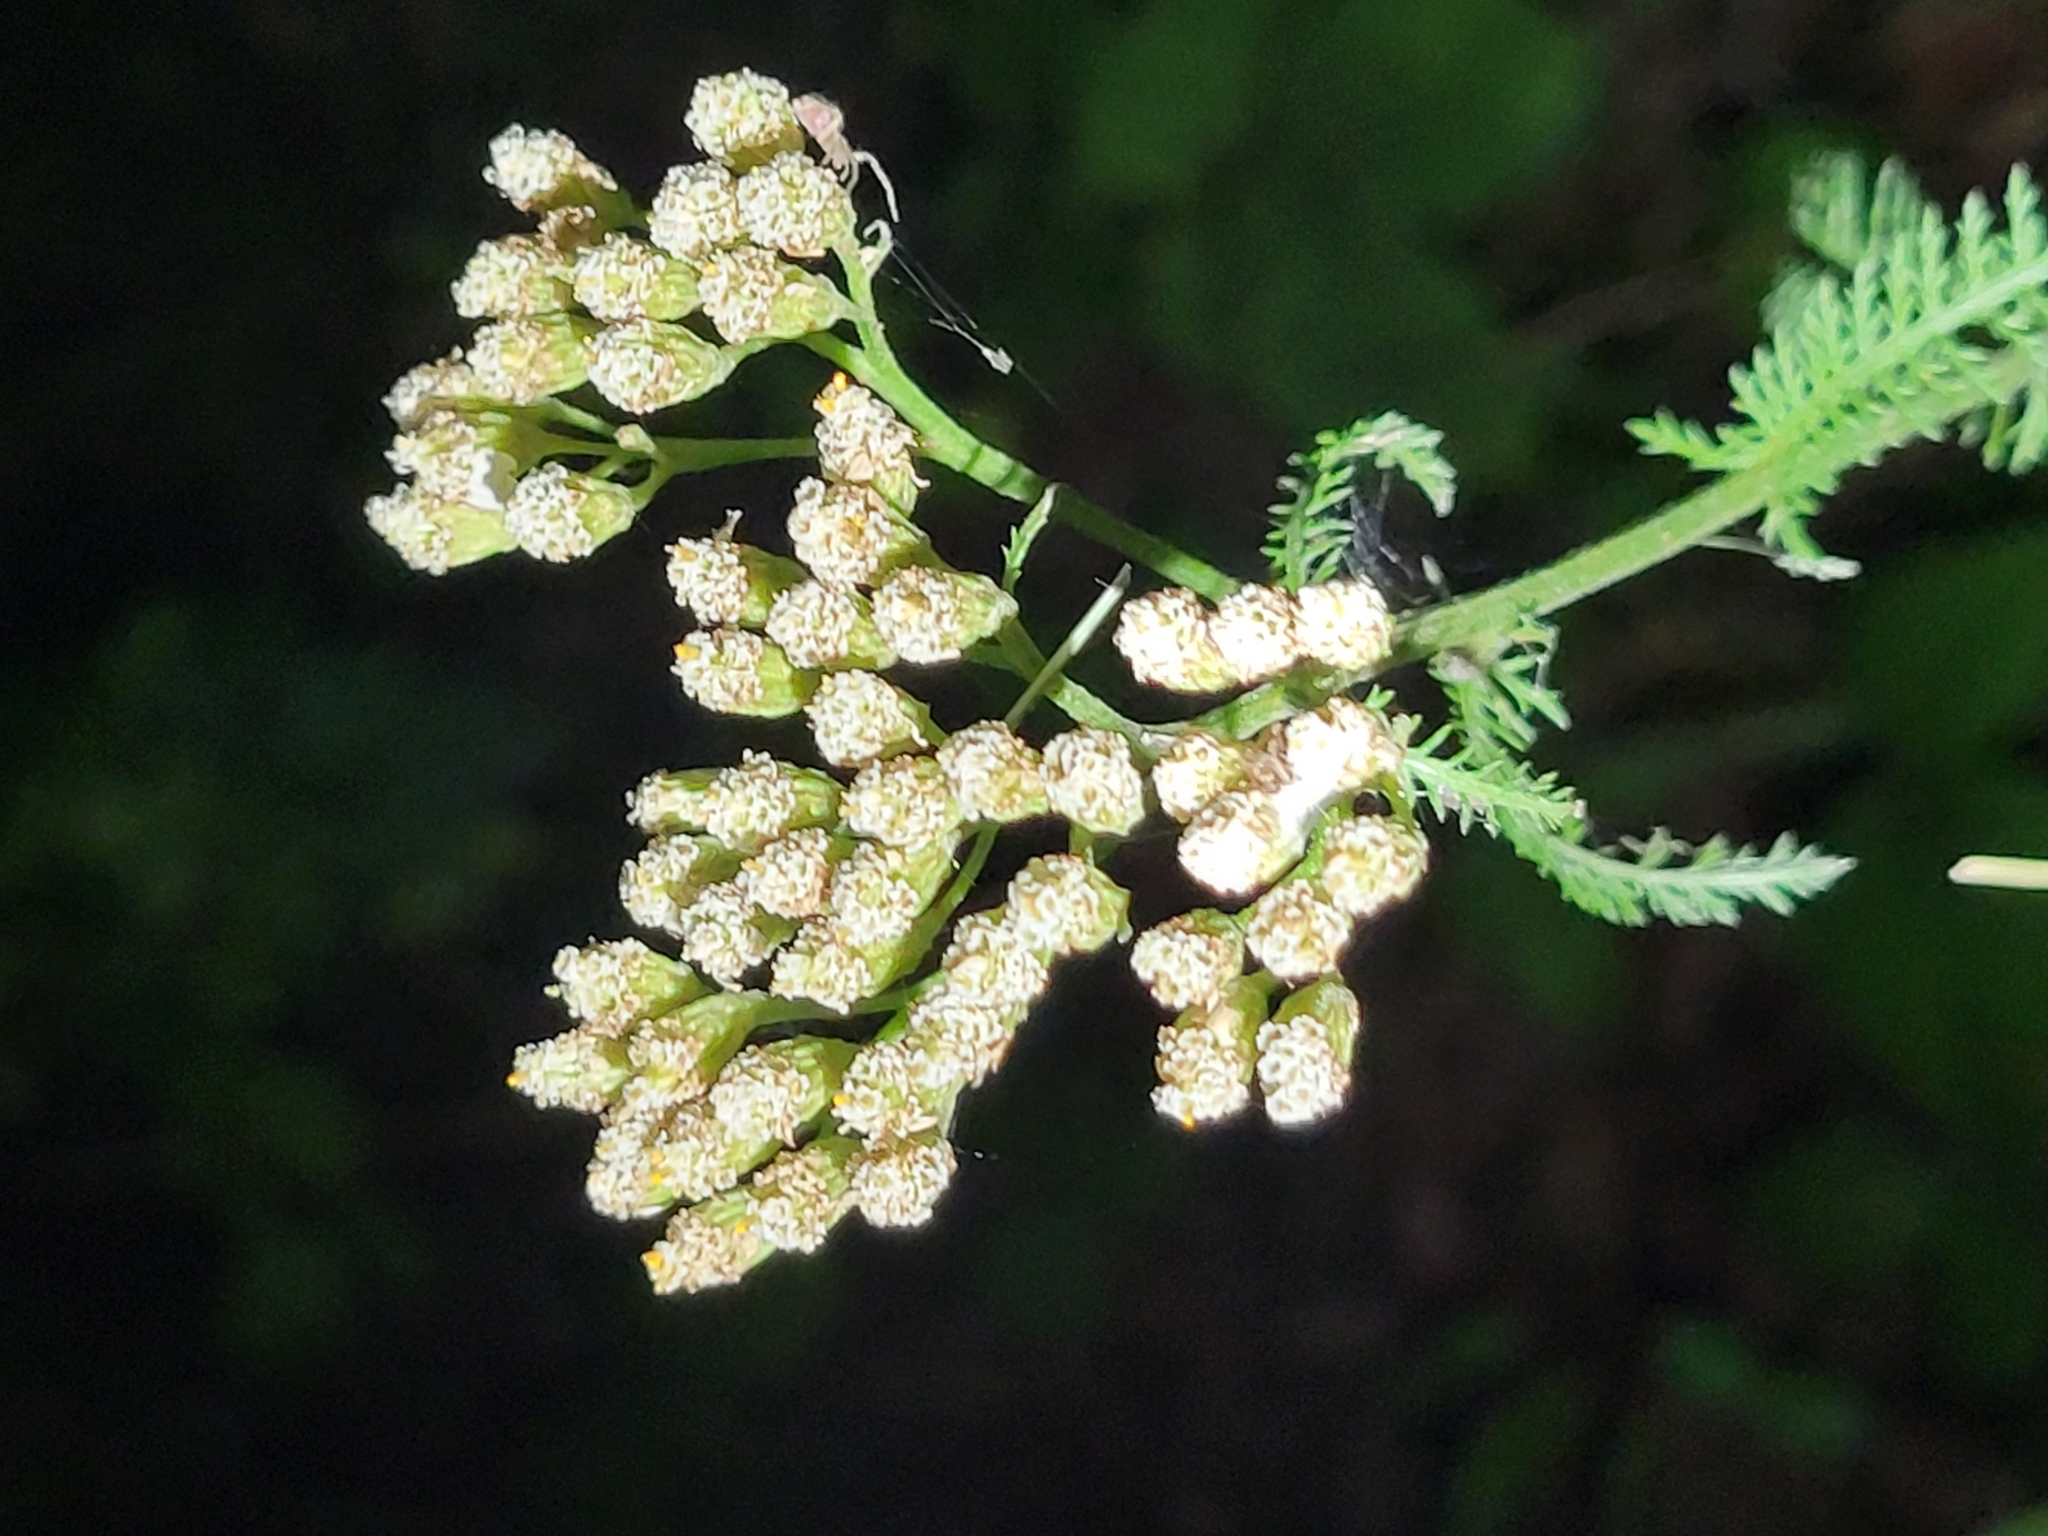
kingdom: Plantae
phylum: Tracheophyta
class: Magnoliopsida
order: Asterales
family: Asteraceae
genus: Achillea
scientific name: Achillea millefolium
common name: Yarrow
